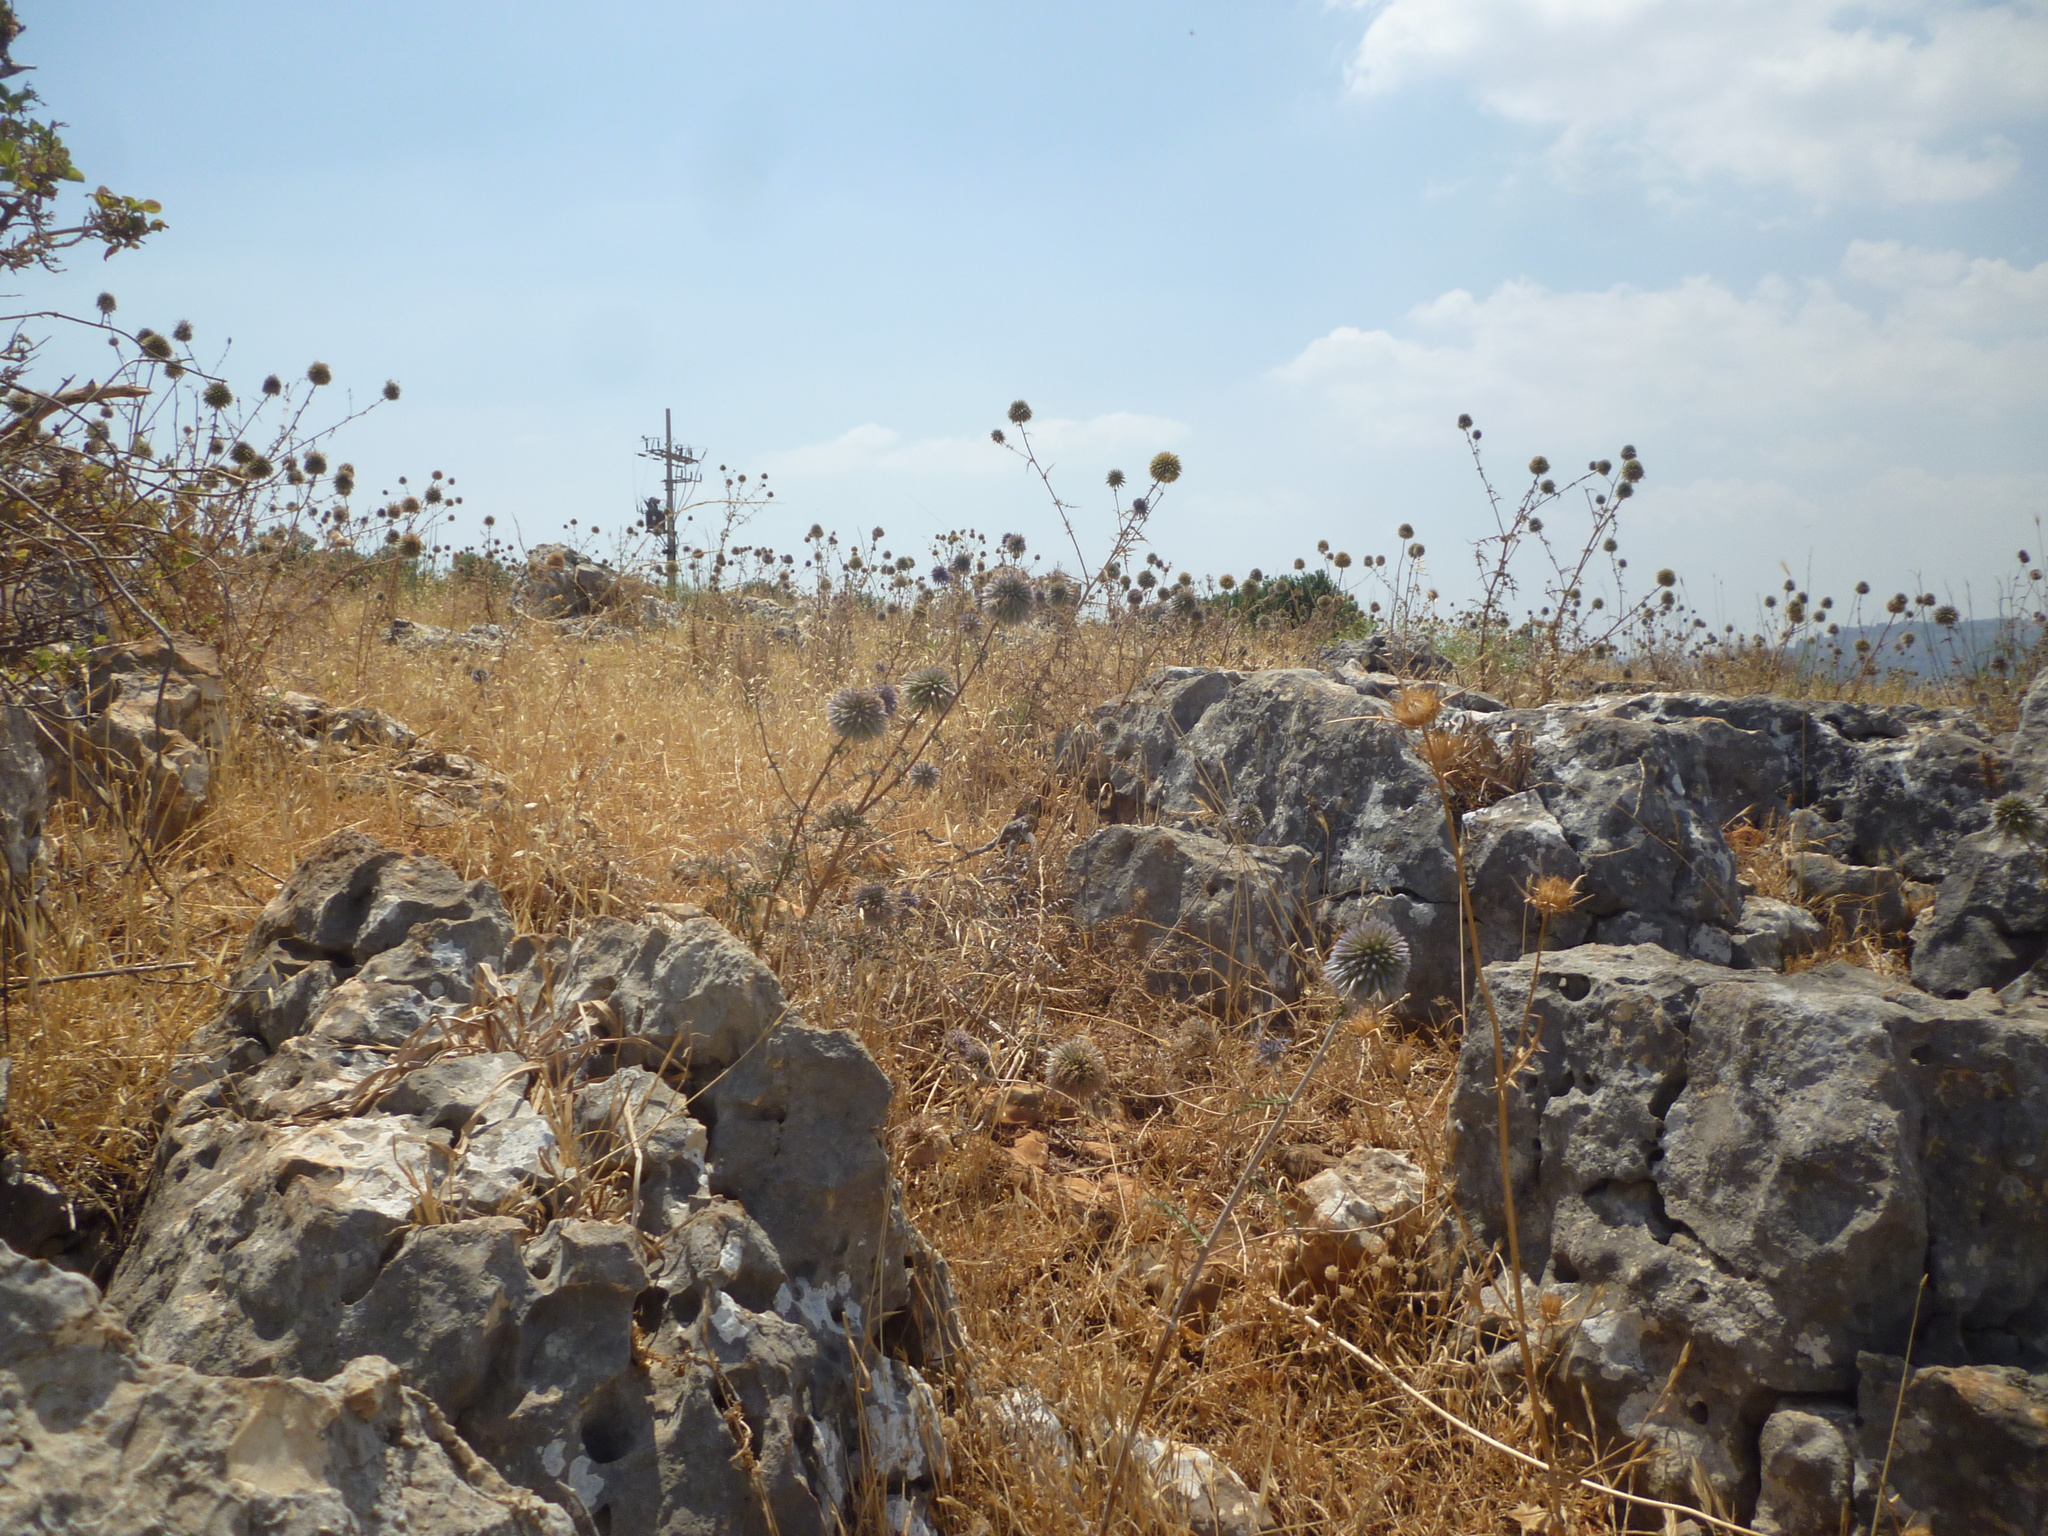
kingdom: Plantae
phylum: Tracheophyta
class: Magnoliopsida
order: Asterales
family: Asteraceae
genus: Echinops
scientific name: Echinops adenocaulos
